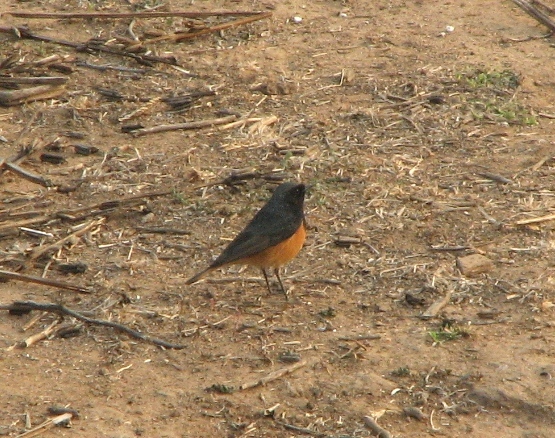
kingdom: Animalia
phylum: Chordata
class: Aves
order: Passeriformes
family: Muscicapidae
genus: Phoenicurus
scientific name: Phoenicurus ochruros
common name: Black redstart
